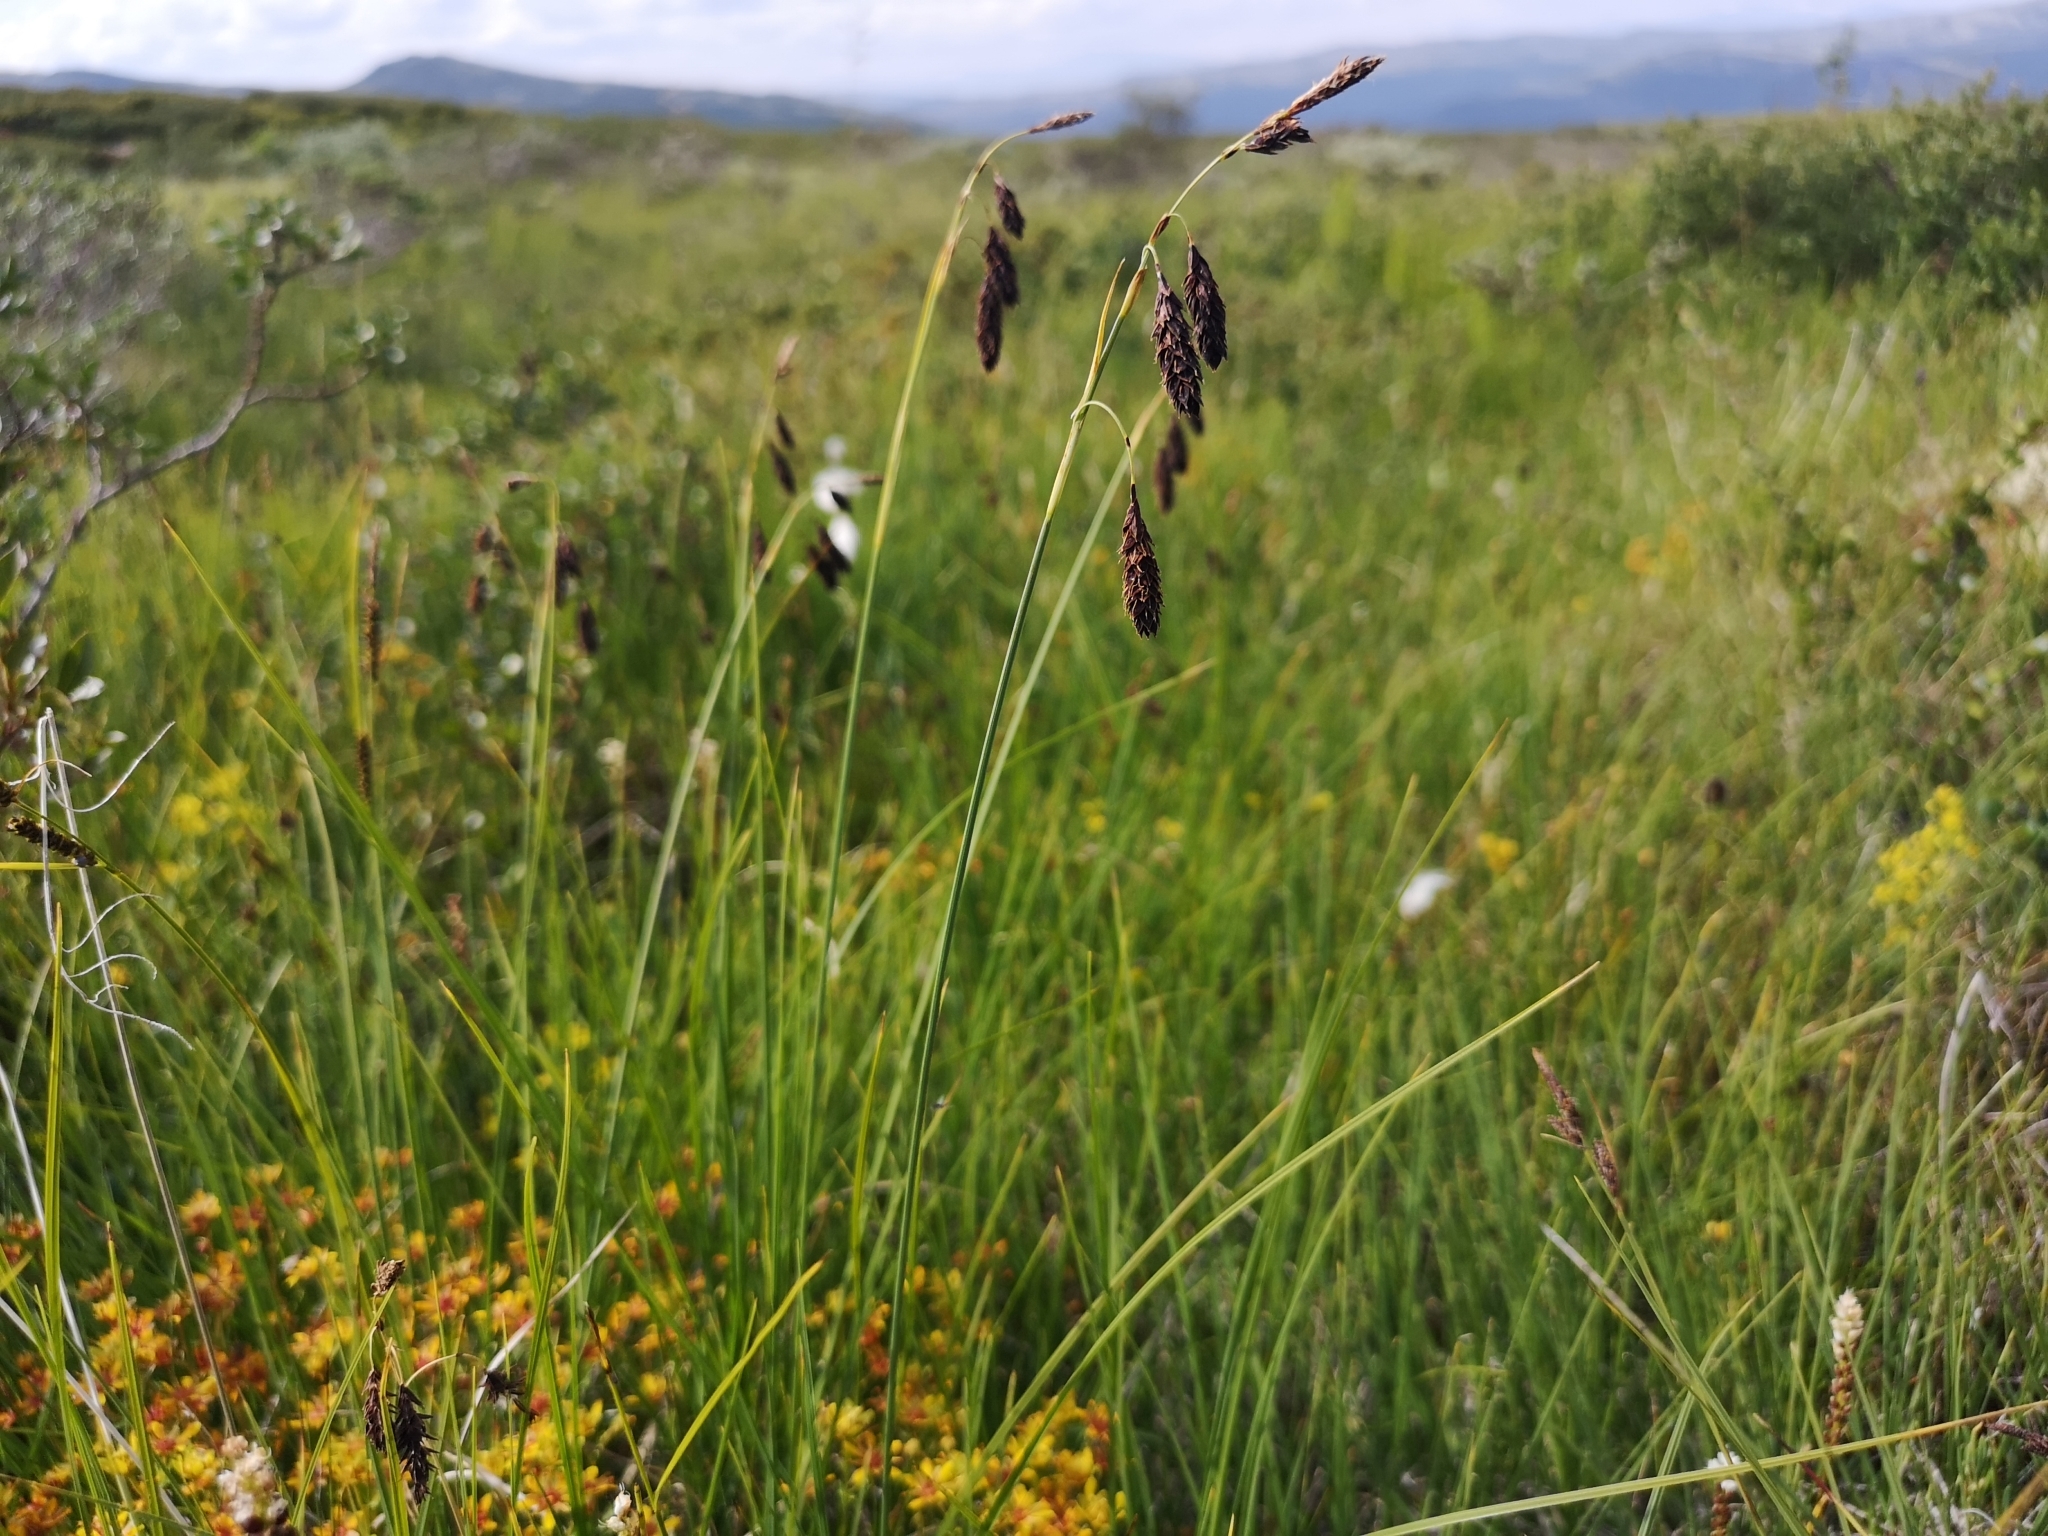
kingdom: Plantae
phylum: Tracheophyta
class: Liliopsida
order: Poales
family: Cyperaceae
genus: Carex
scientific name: Carex atrofusca
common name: Scorched alpine-sedge
